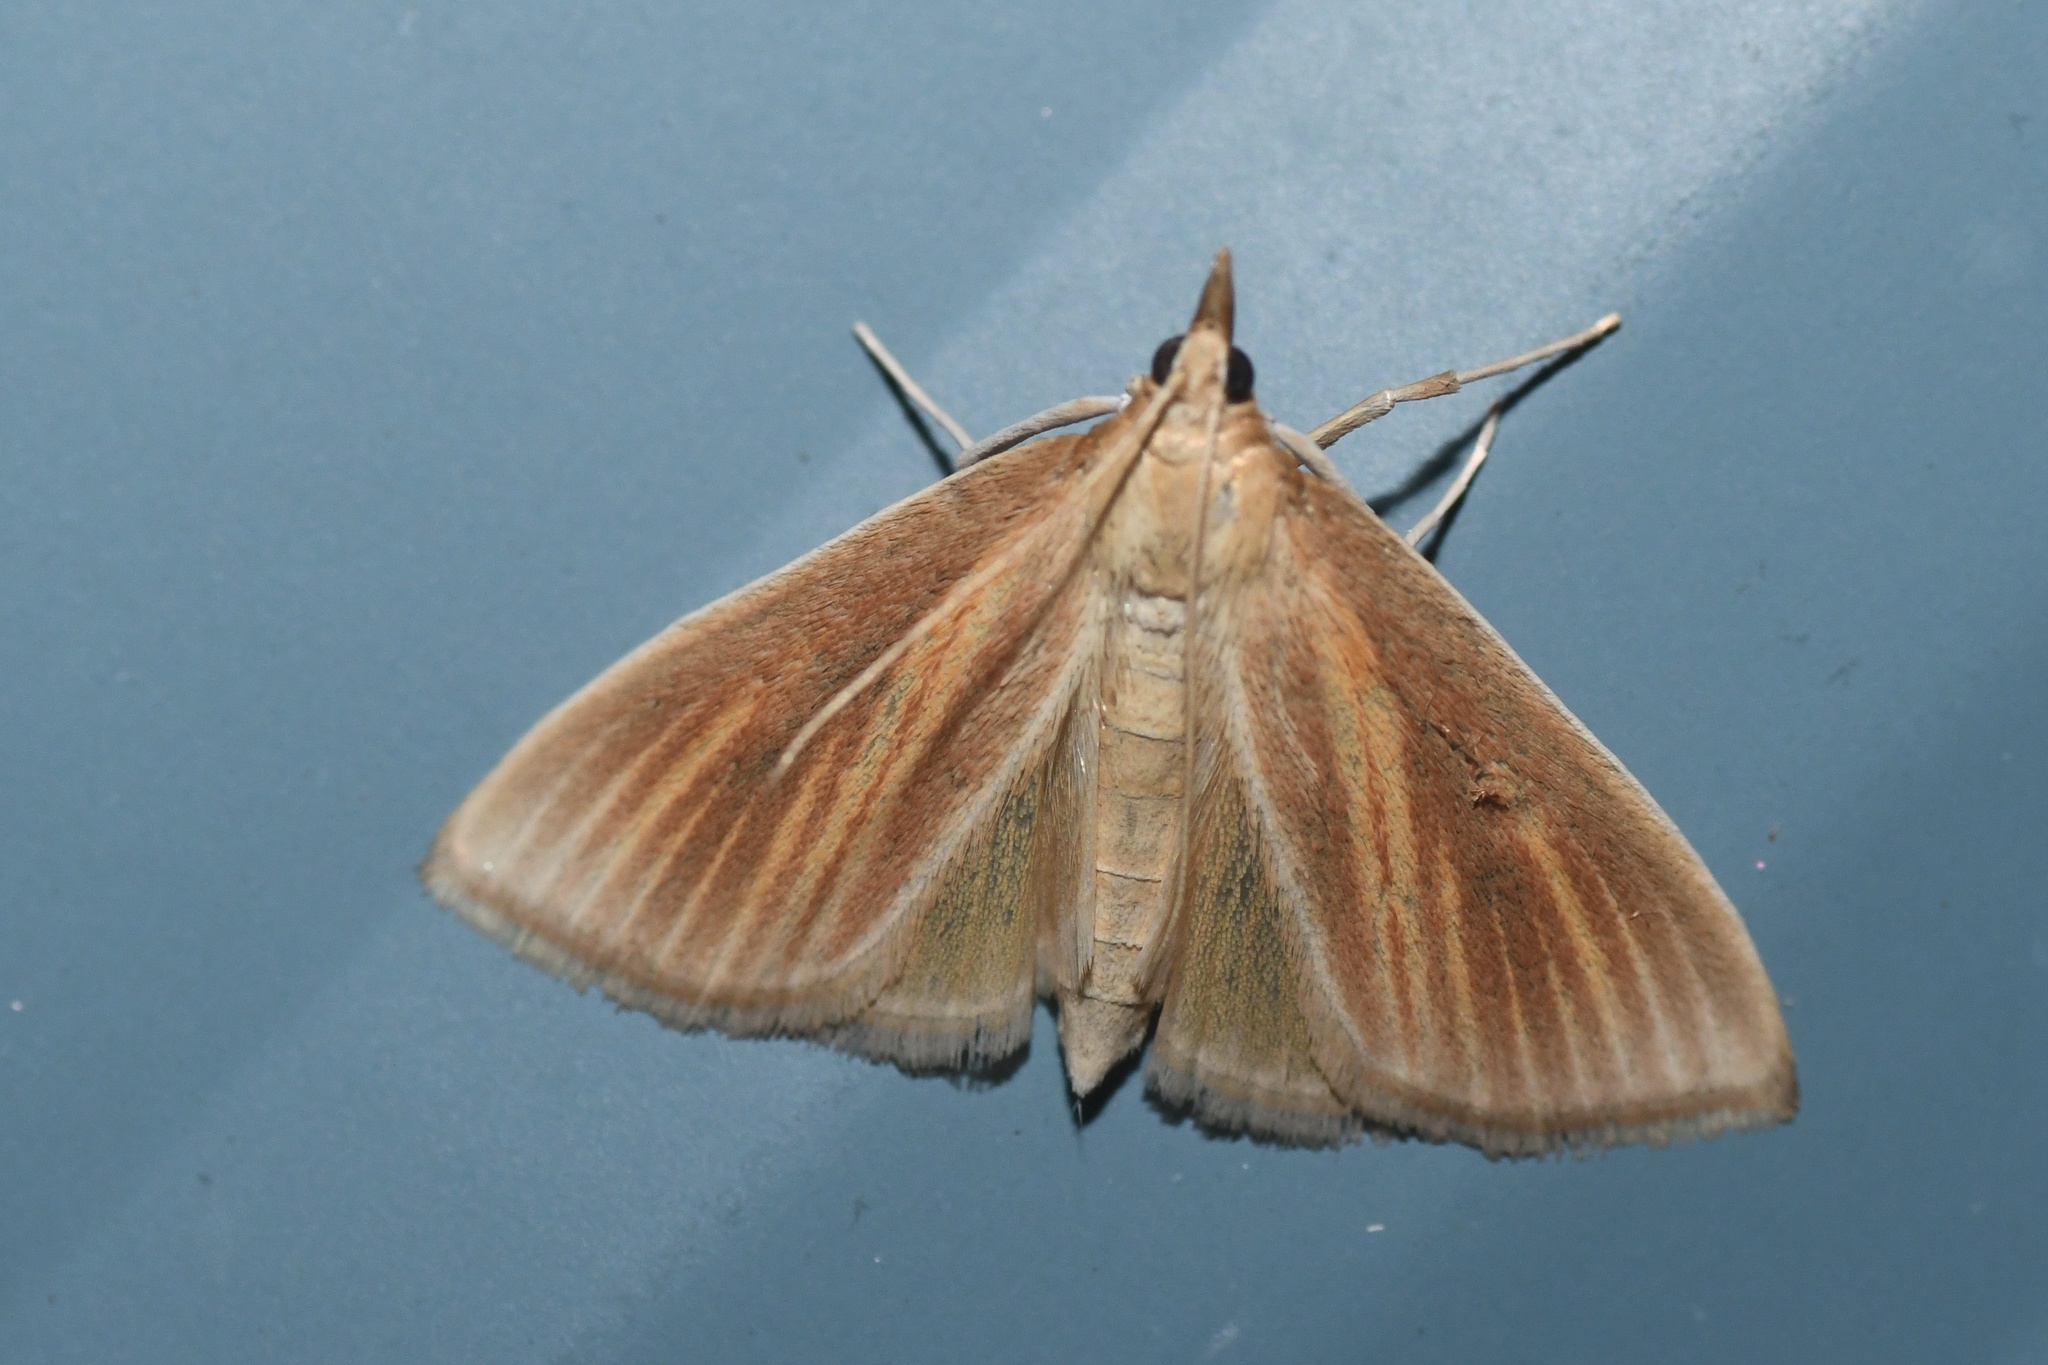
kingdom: Animalia
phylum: Arthropoda
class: Insecta
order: Lepidoptera
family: Crambidae
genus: Nascia
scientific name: Nascia acutellus
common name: Streaked orange moth
